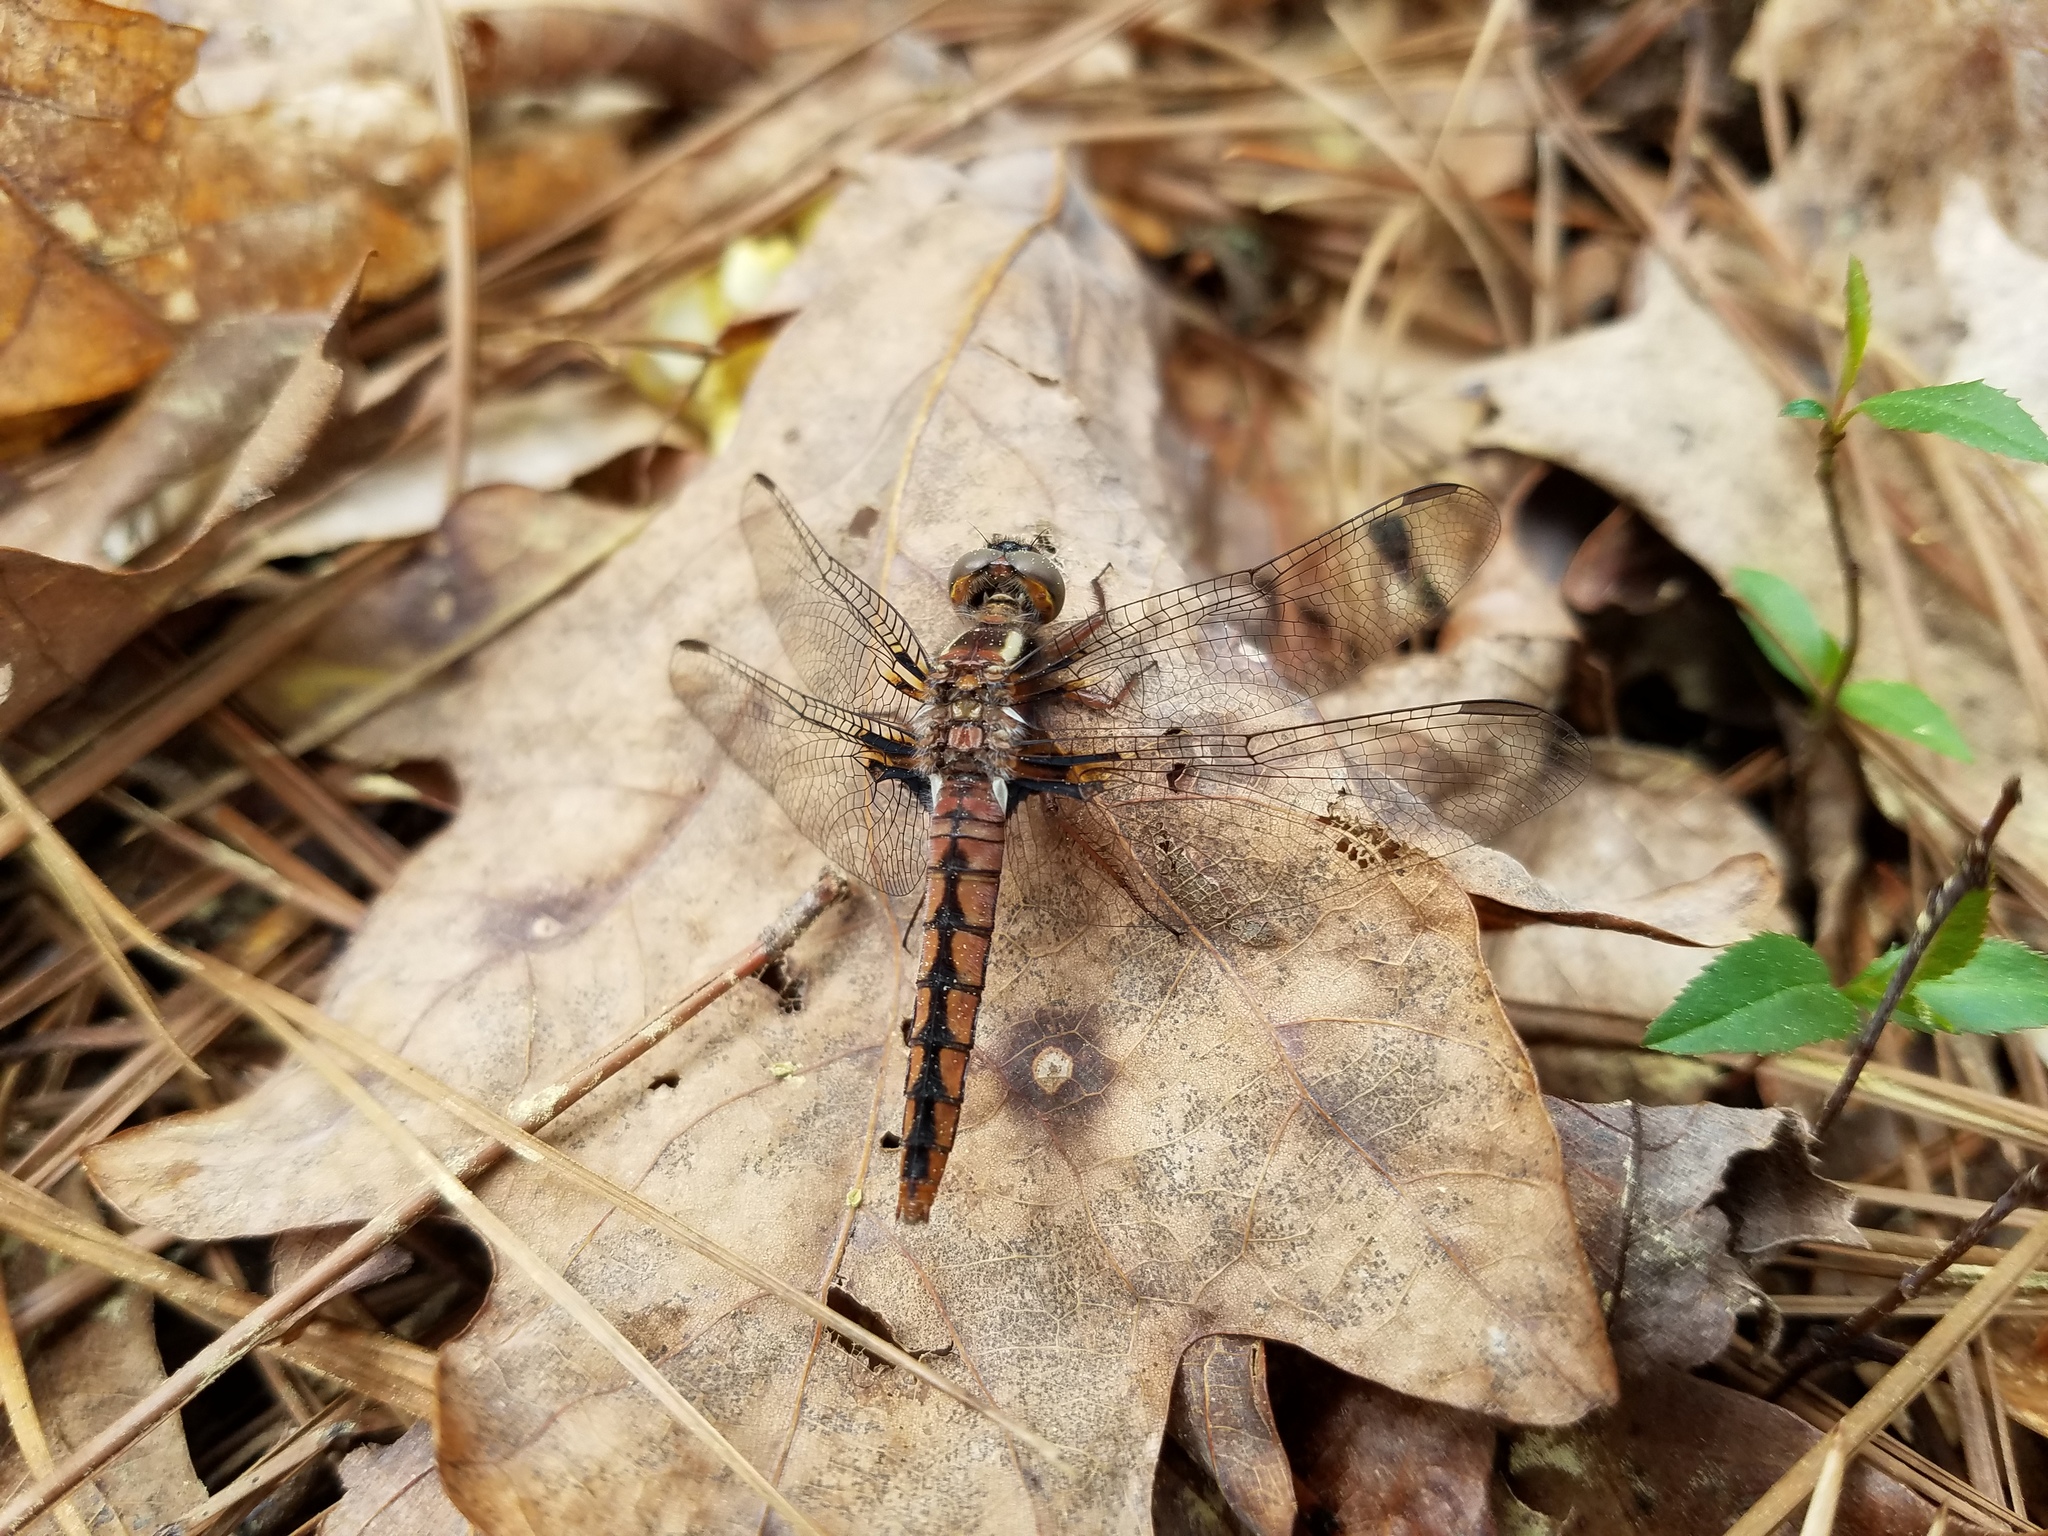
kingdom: Animalia
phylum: Arthropoda
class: Insecta
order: Odonata
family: Libellulidae
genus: Ladona
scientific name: Ladona deplanata
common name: Blue corporal
